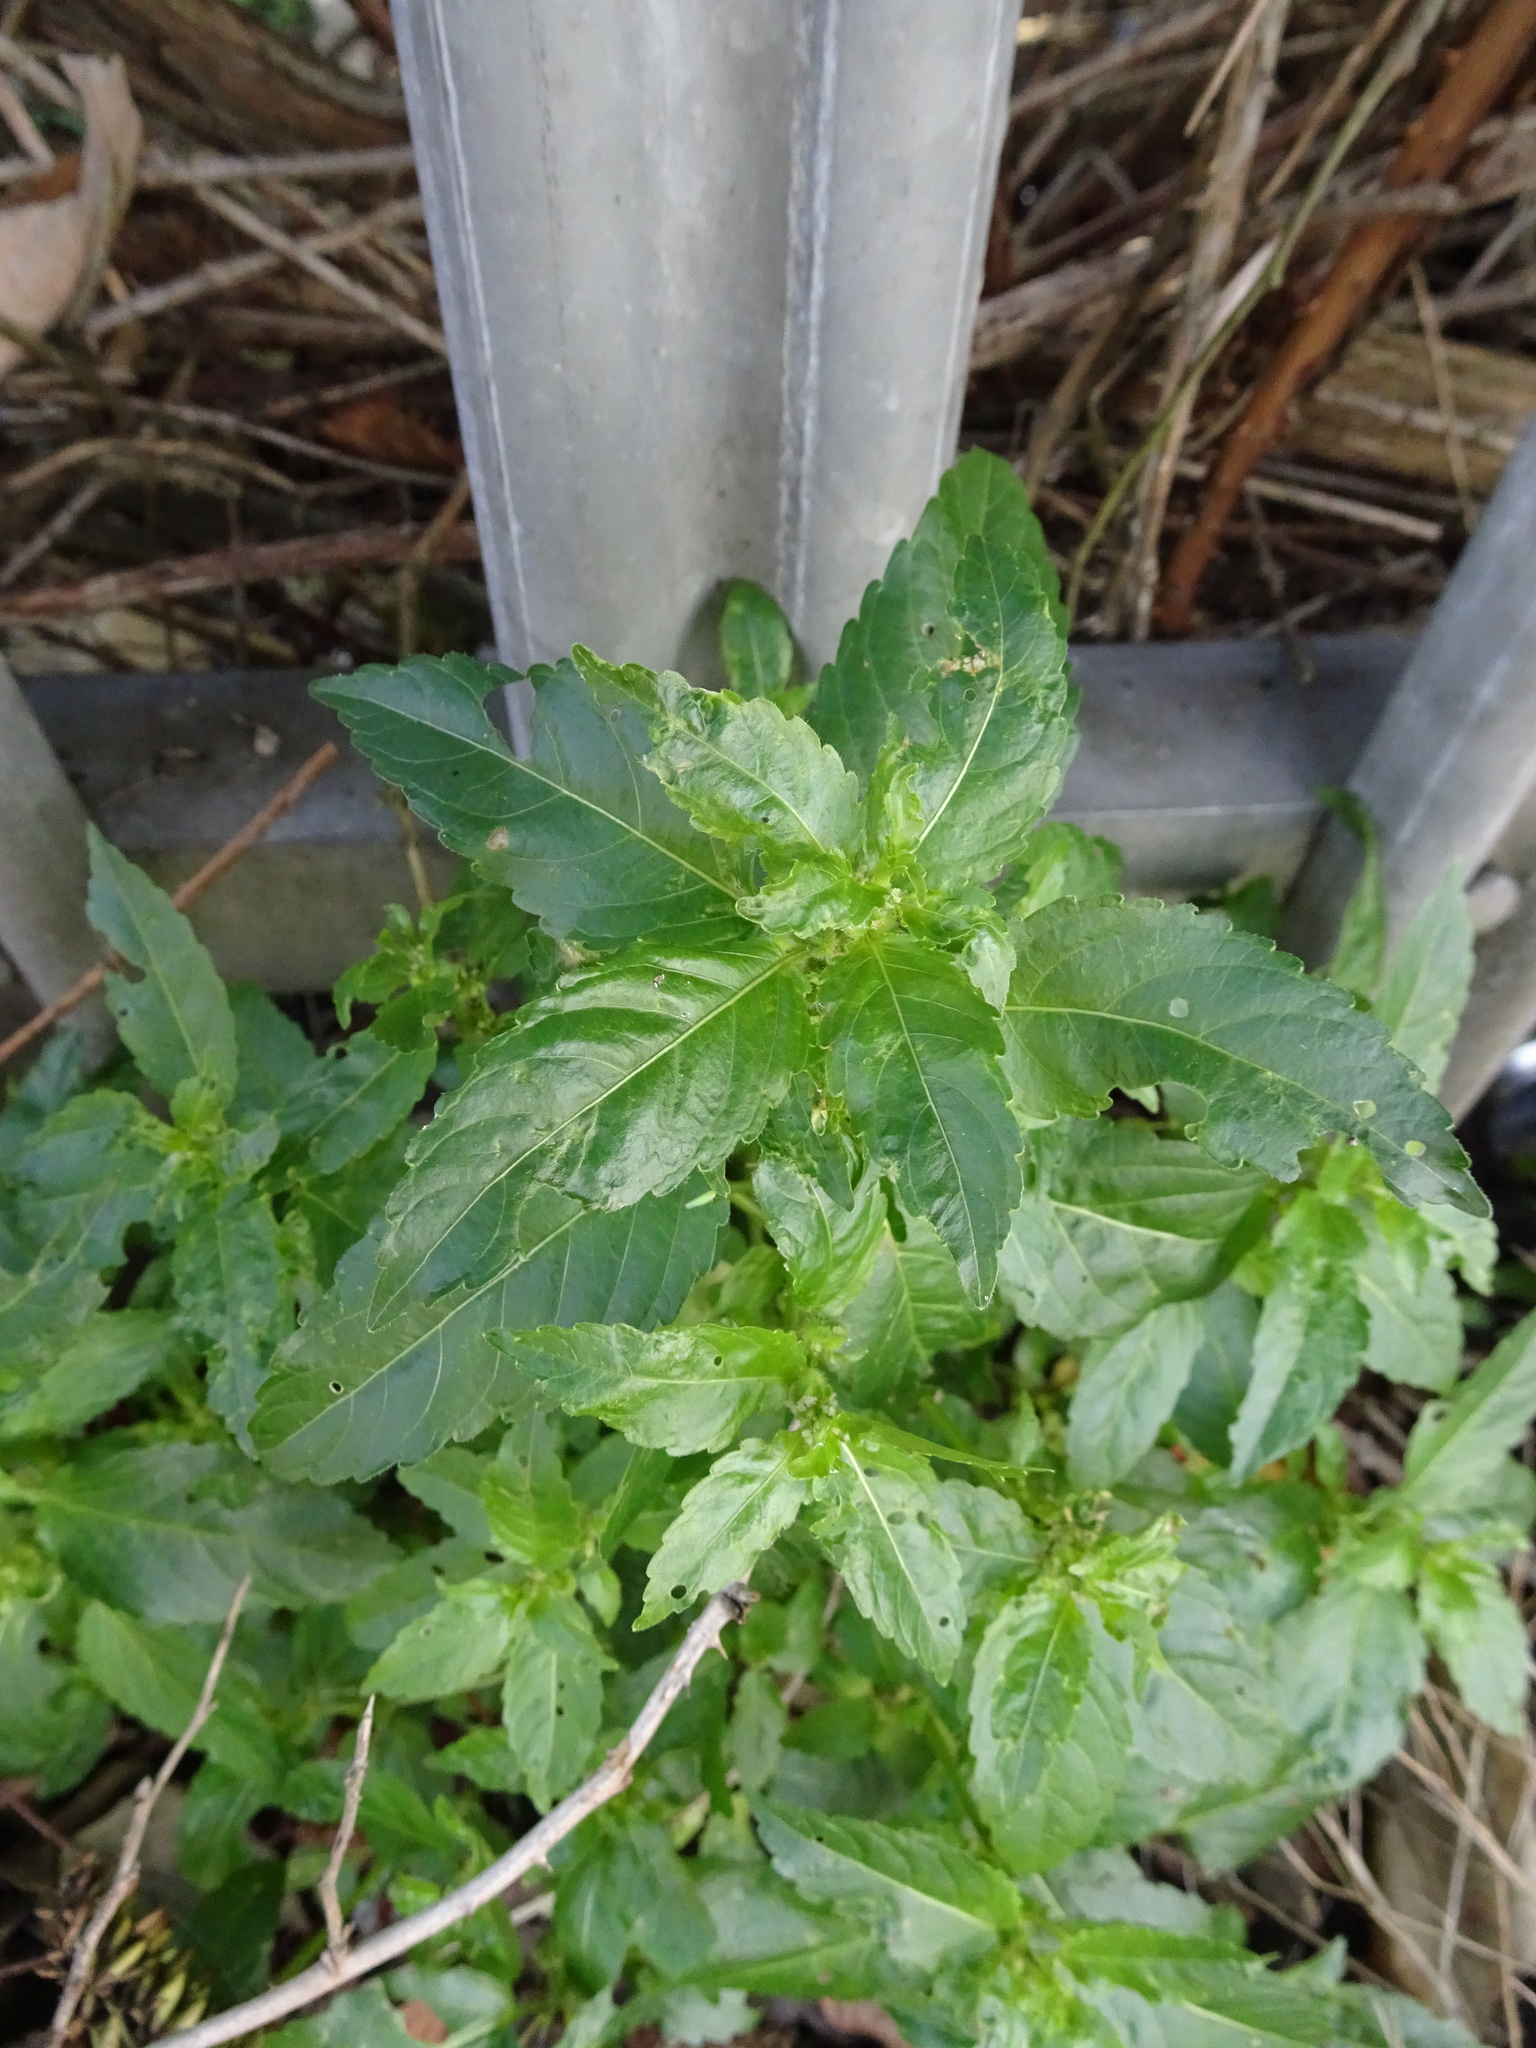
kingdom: Plantae
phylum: Tracheophyta
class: Magnoliopsida
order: Malpighiales
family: Euphorbiaceae
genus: Mercurialis
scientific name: Mercurialis annua
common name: Annual mercury
